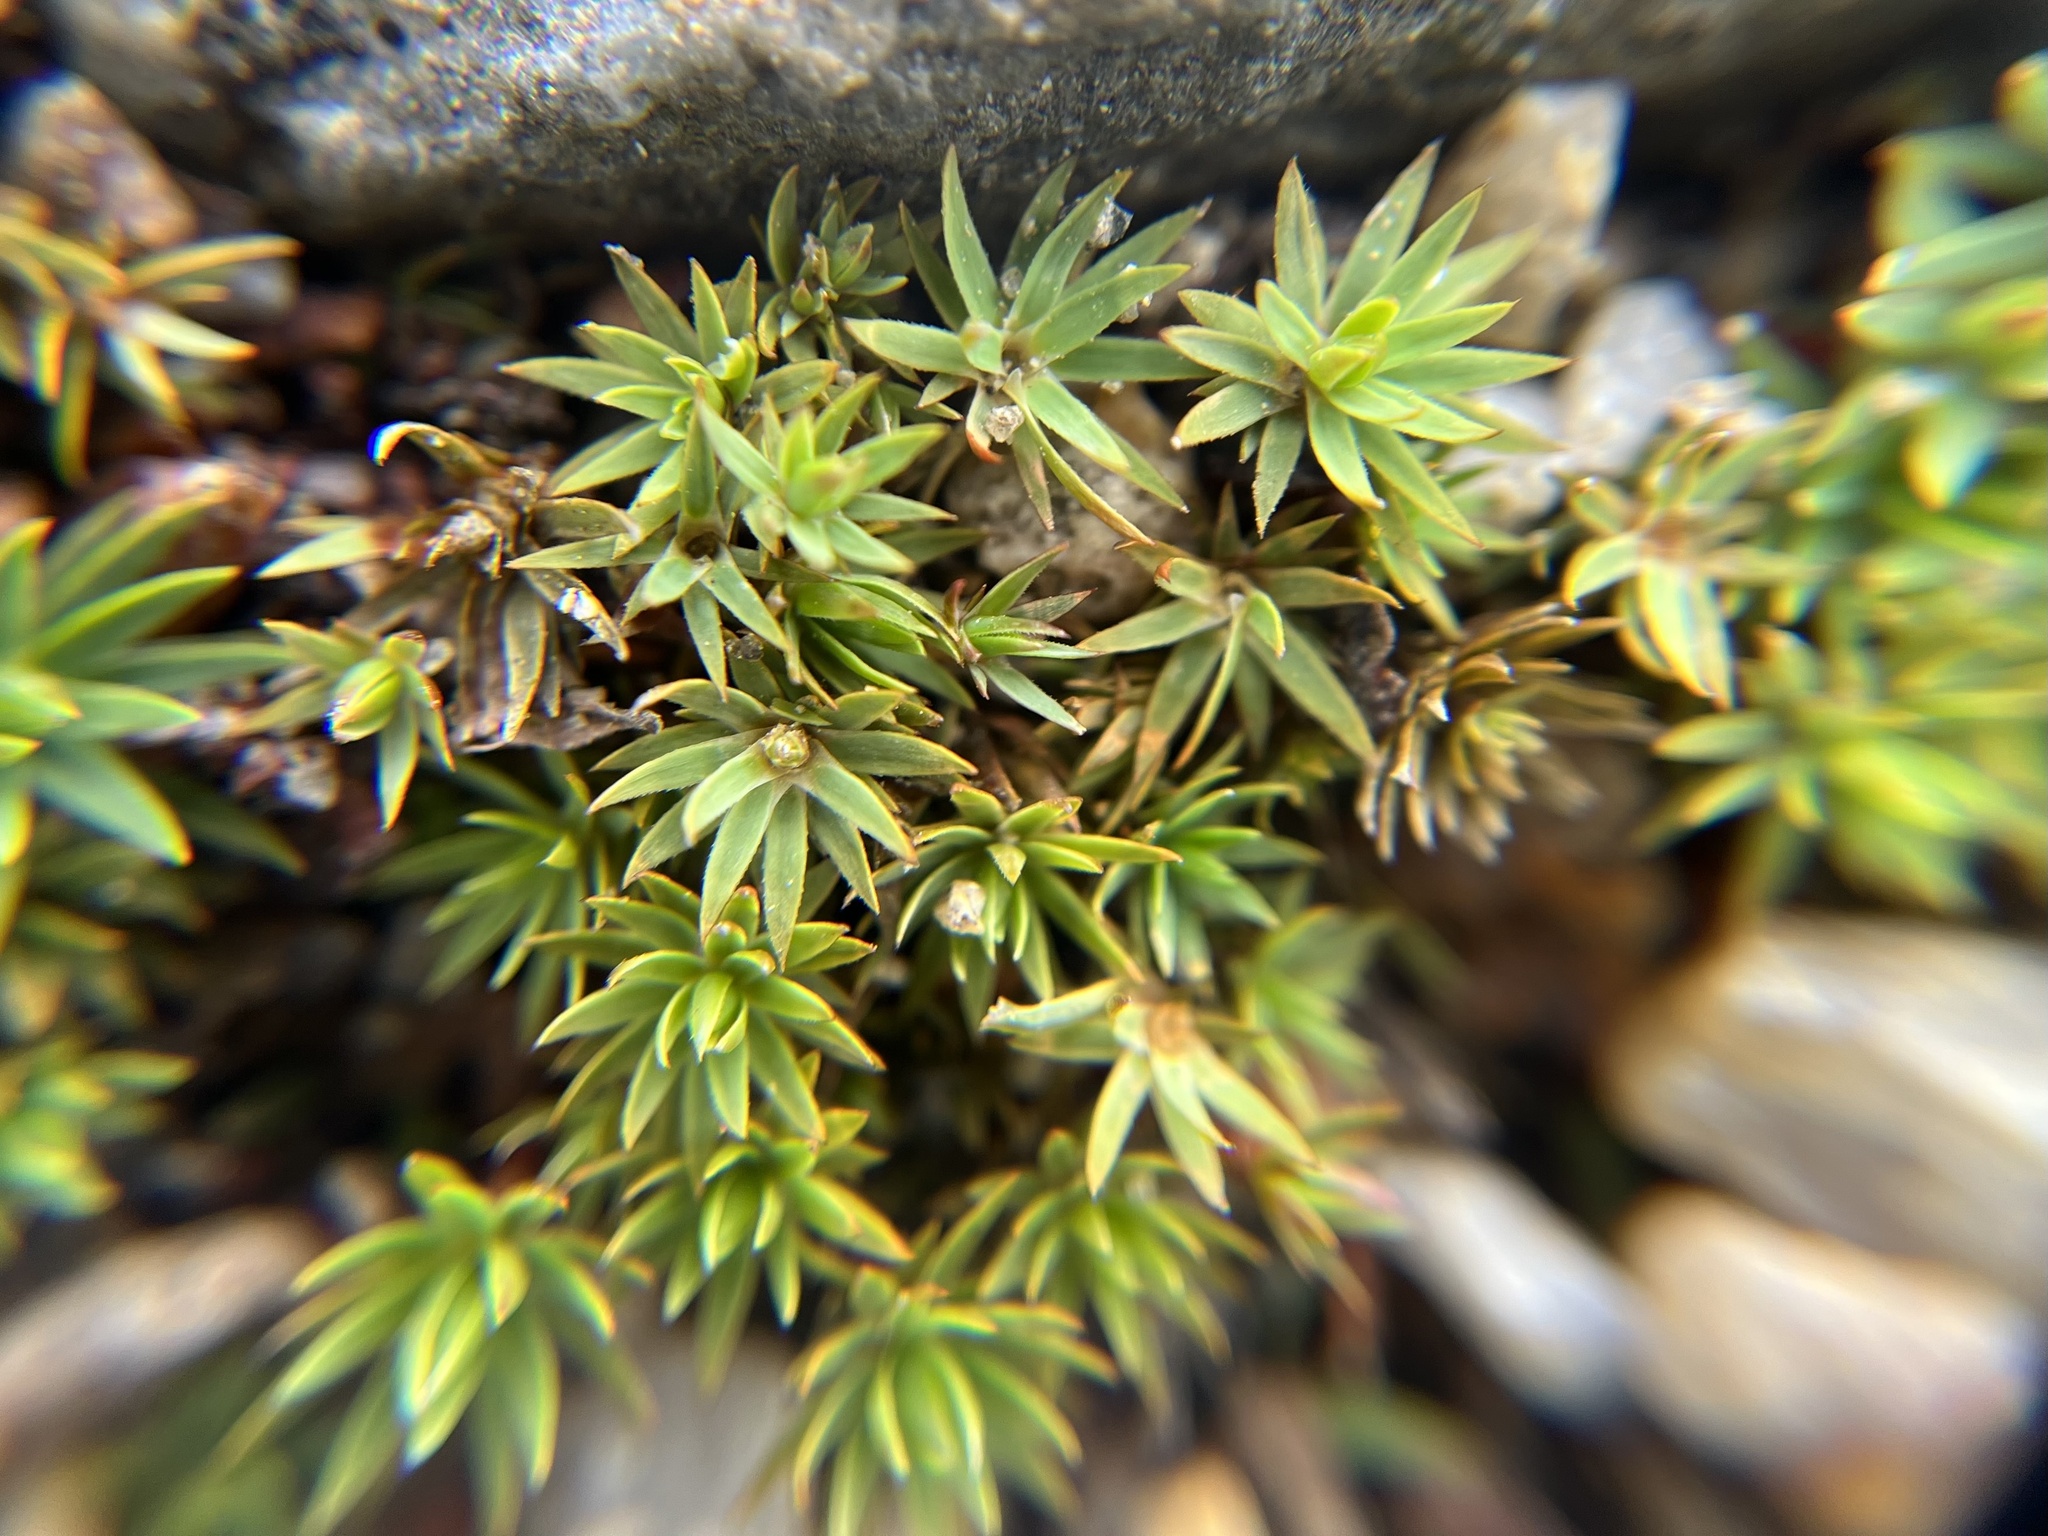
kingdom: Plantae
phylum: Bryophyta
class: Polytrichopsida
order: Polytrichales
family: Polytrichaceae
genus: Pogonatum
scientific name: Pogonatum urnigerum
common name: Urn hair moss
